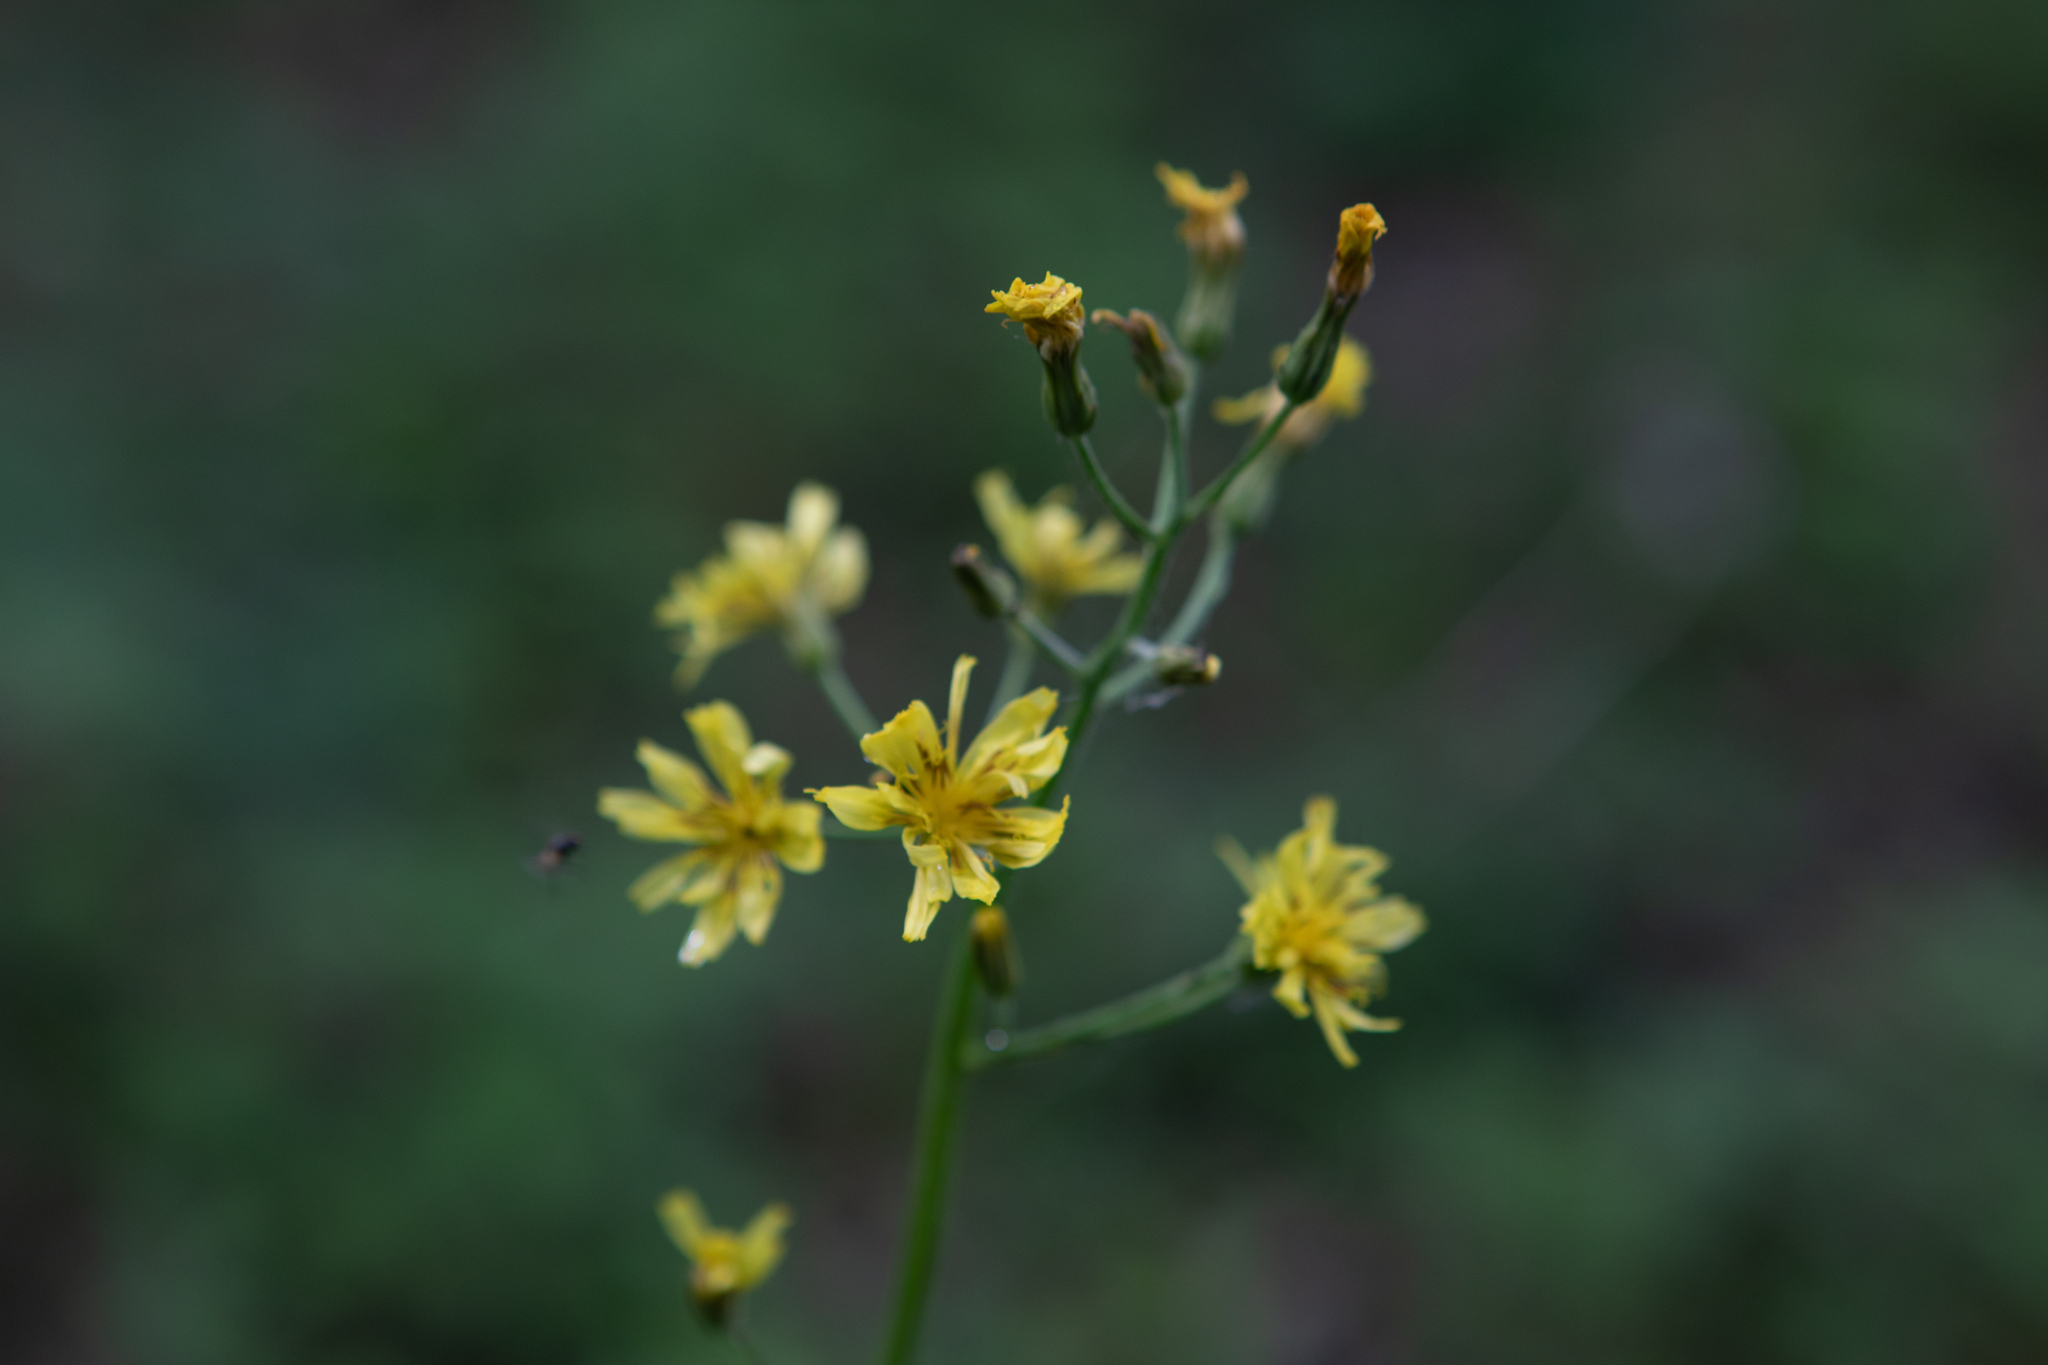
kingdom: Plantae
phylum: Tracheophyta
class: Magnoliopsida
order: Asterales
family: Asteraceae
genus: Crepis
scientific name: Crepis praemorsa
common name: Leafless hawk's-beard
